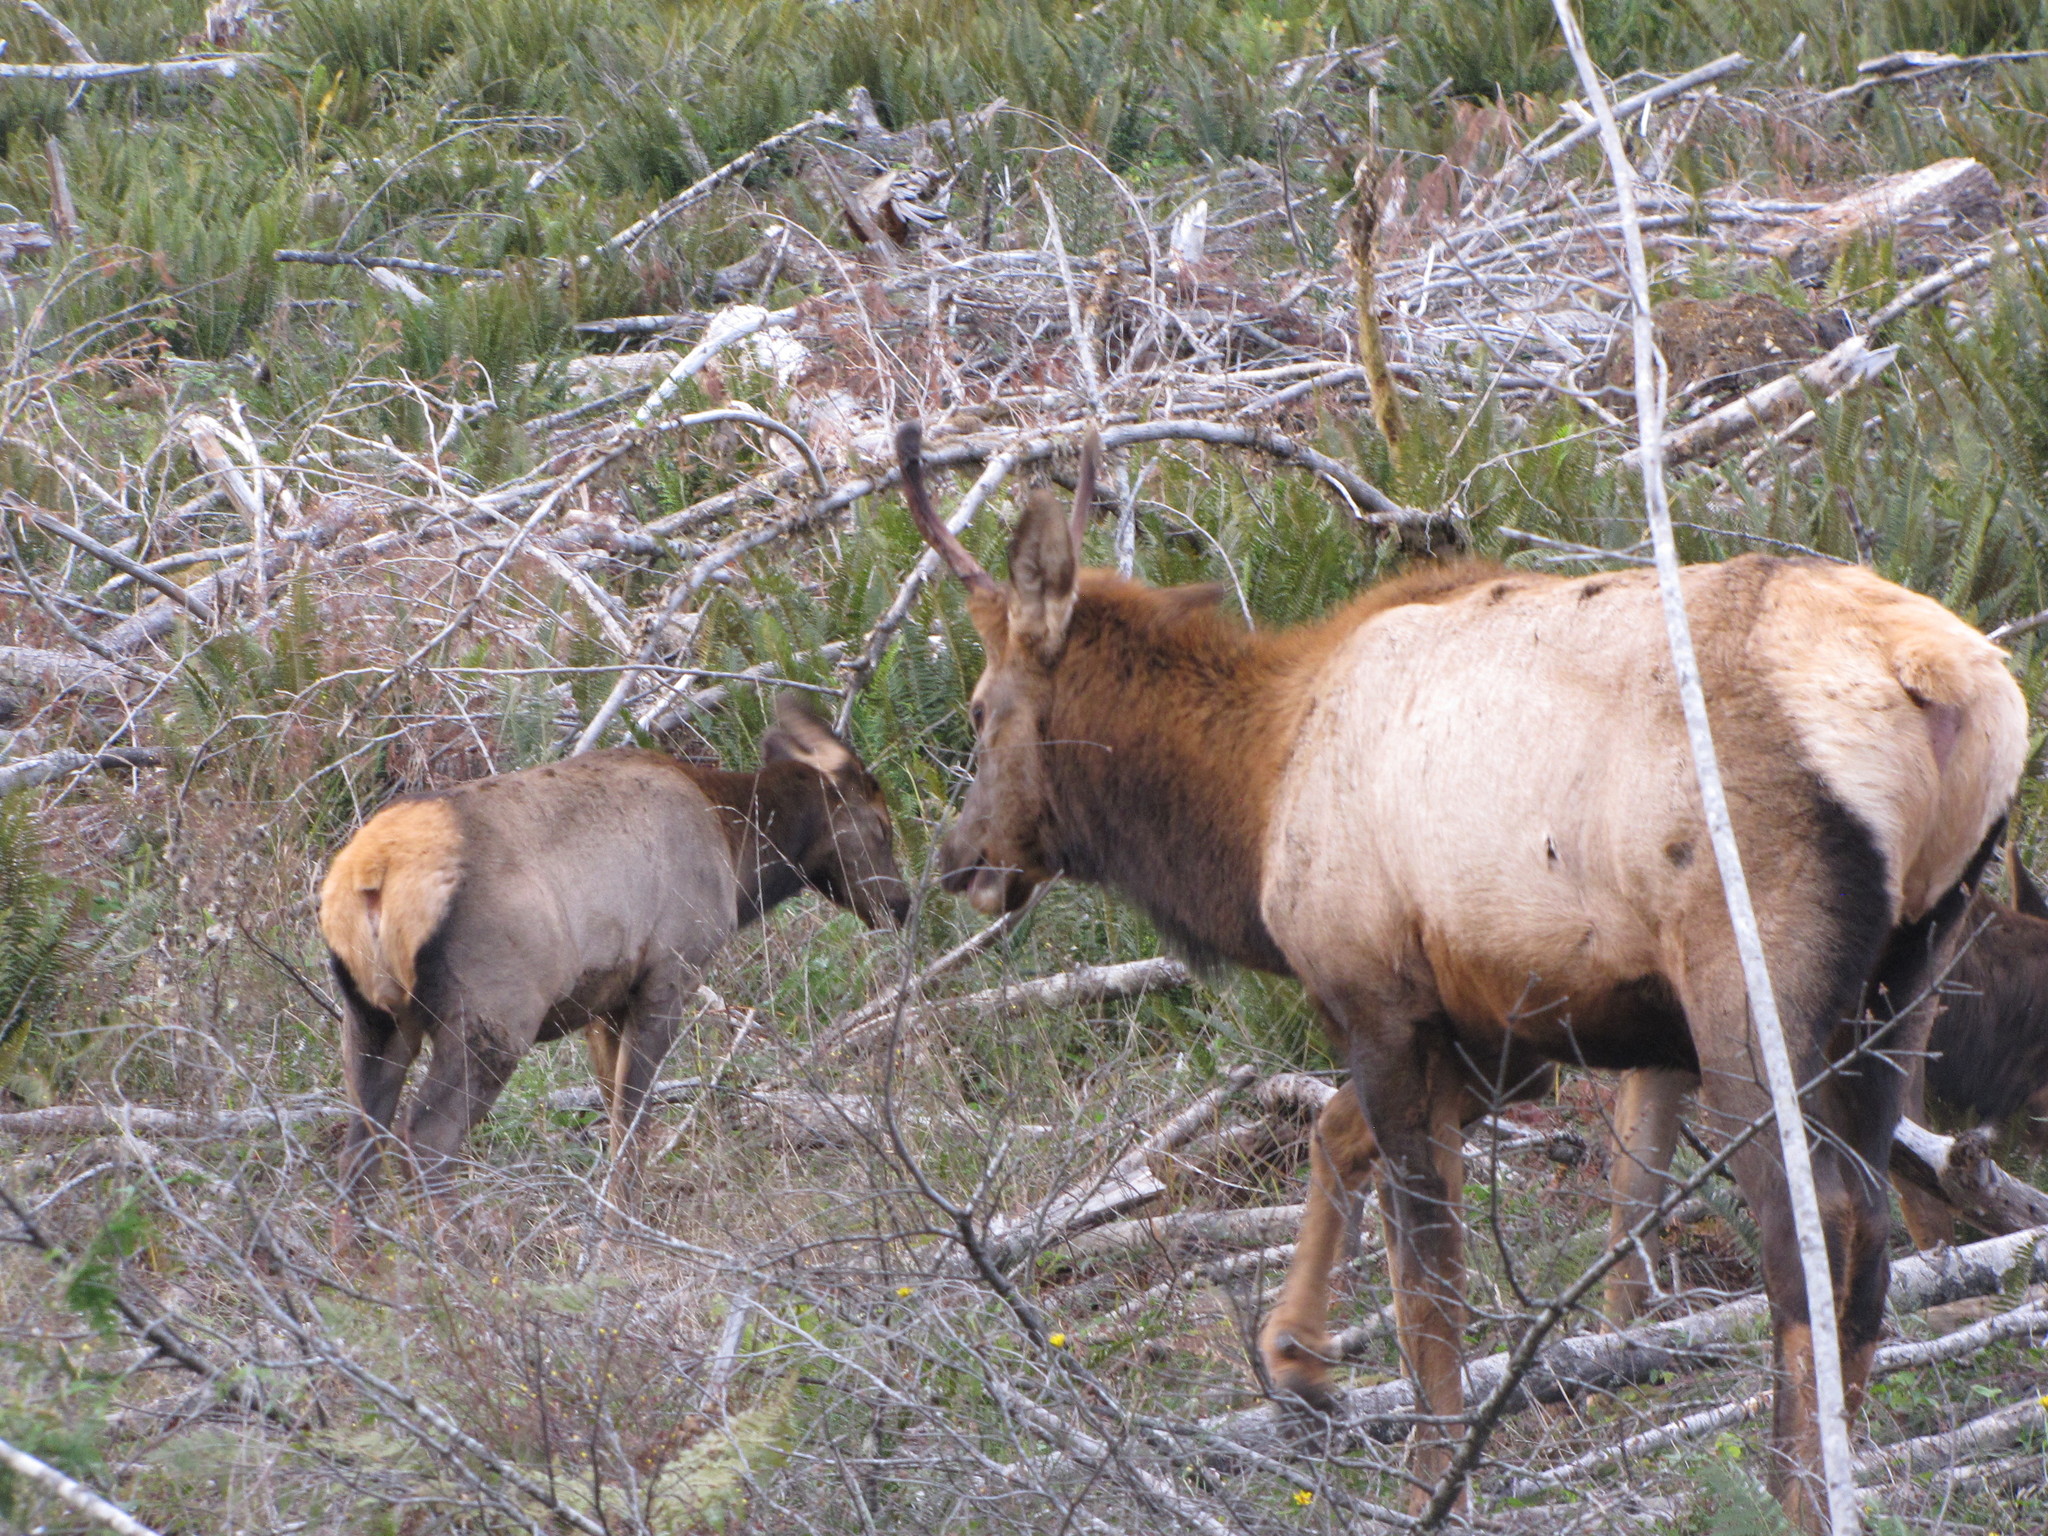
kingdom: Animalia
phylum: Chordata
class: Mammalia
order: Artiodactyla
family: Cervidae
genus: Cervus
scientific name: Cervus elaphus
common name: Red deer
